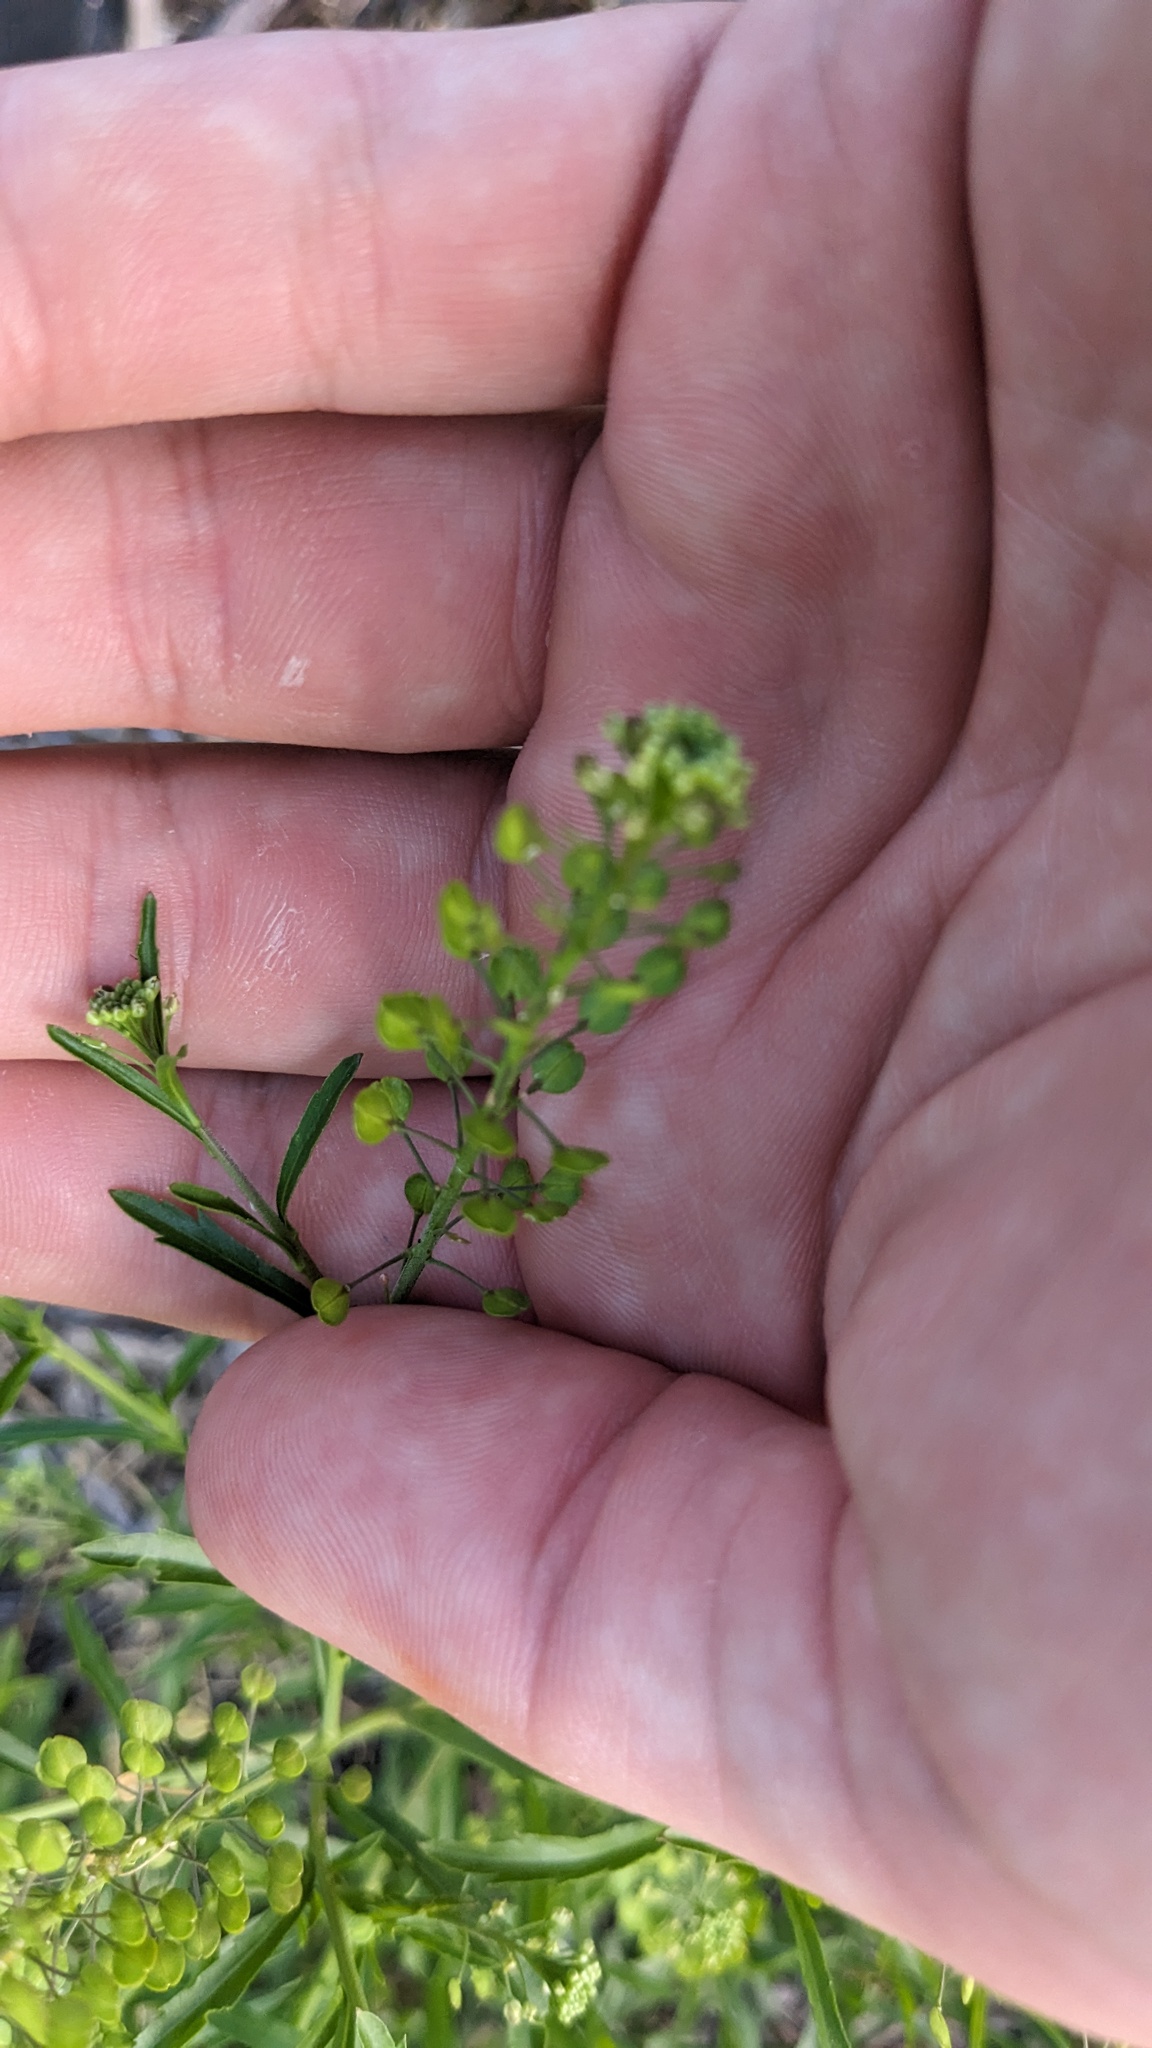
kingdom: Plantae
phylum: Tracheophyta
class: Magnoliopsida
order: Brassicales
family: Brassicaceae
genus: Lepidium
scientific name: Lepidium virginicum
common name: Least pepperwort
